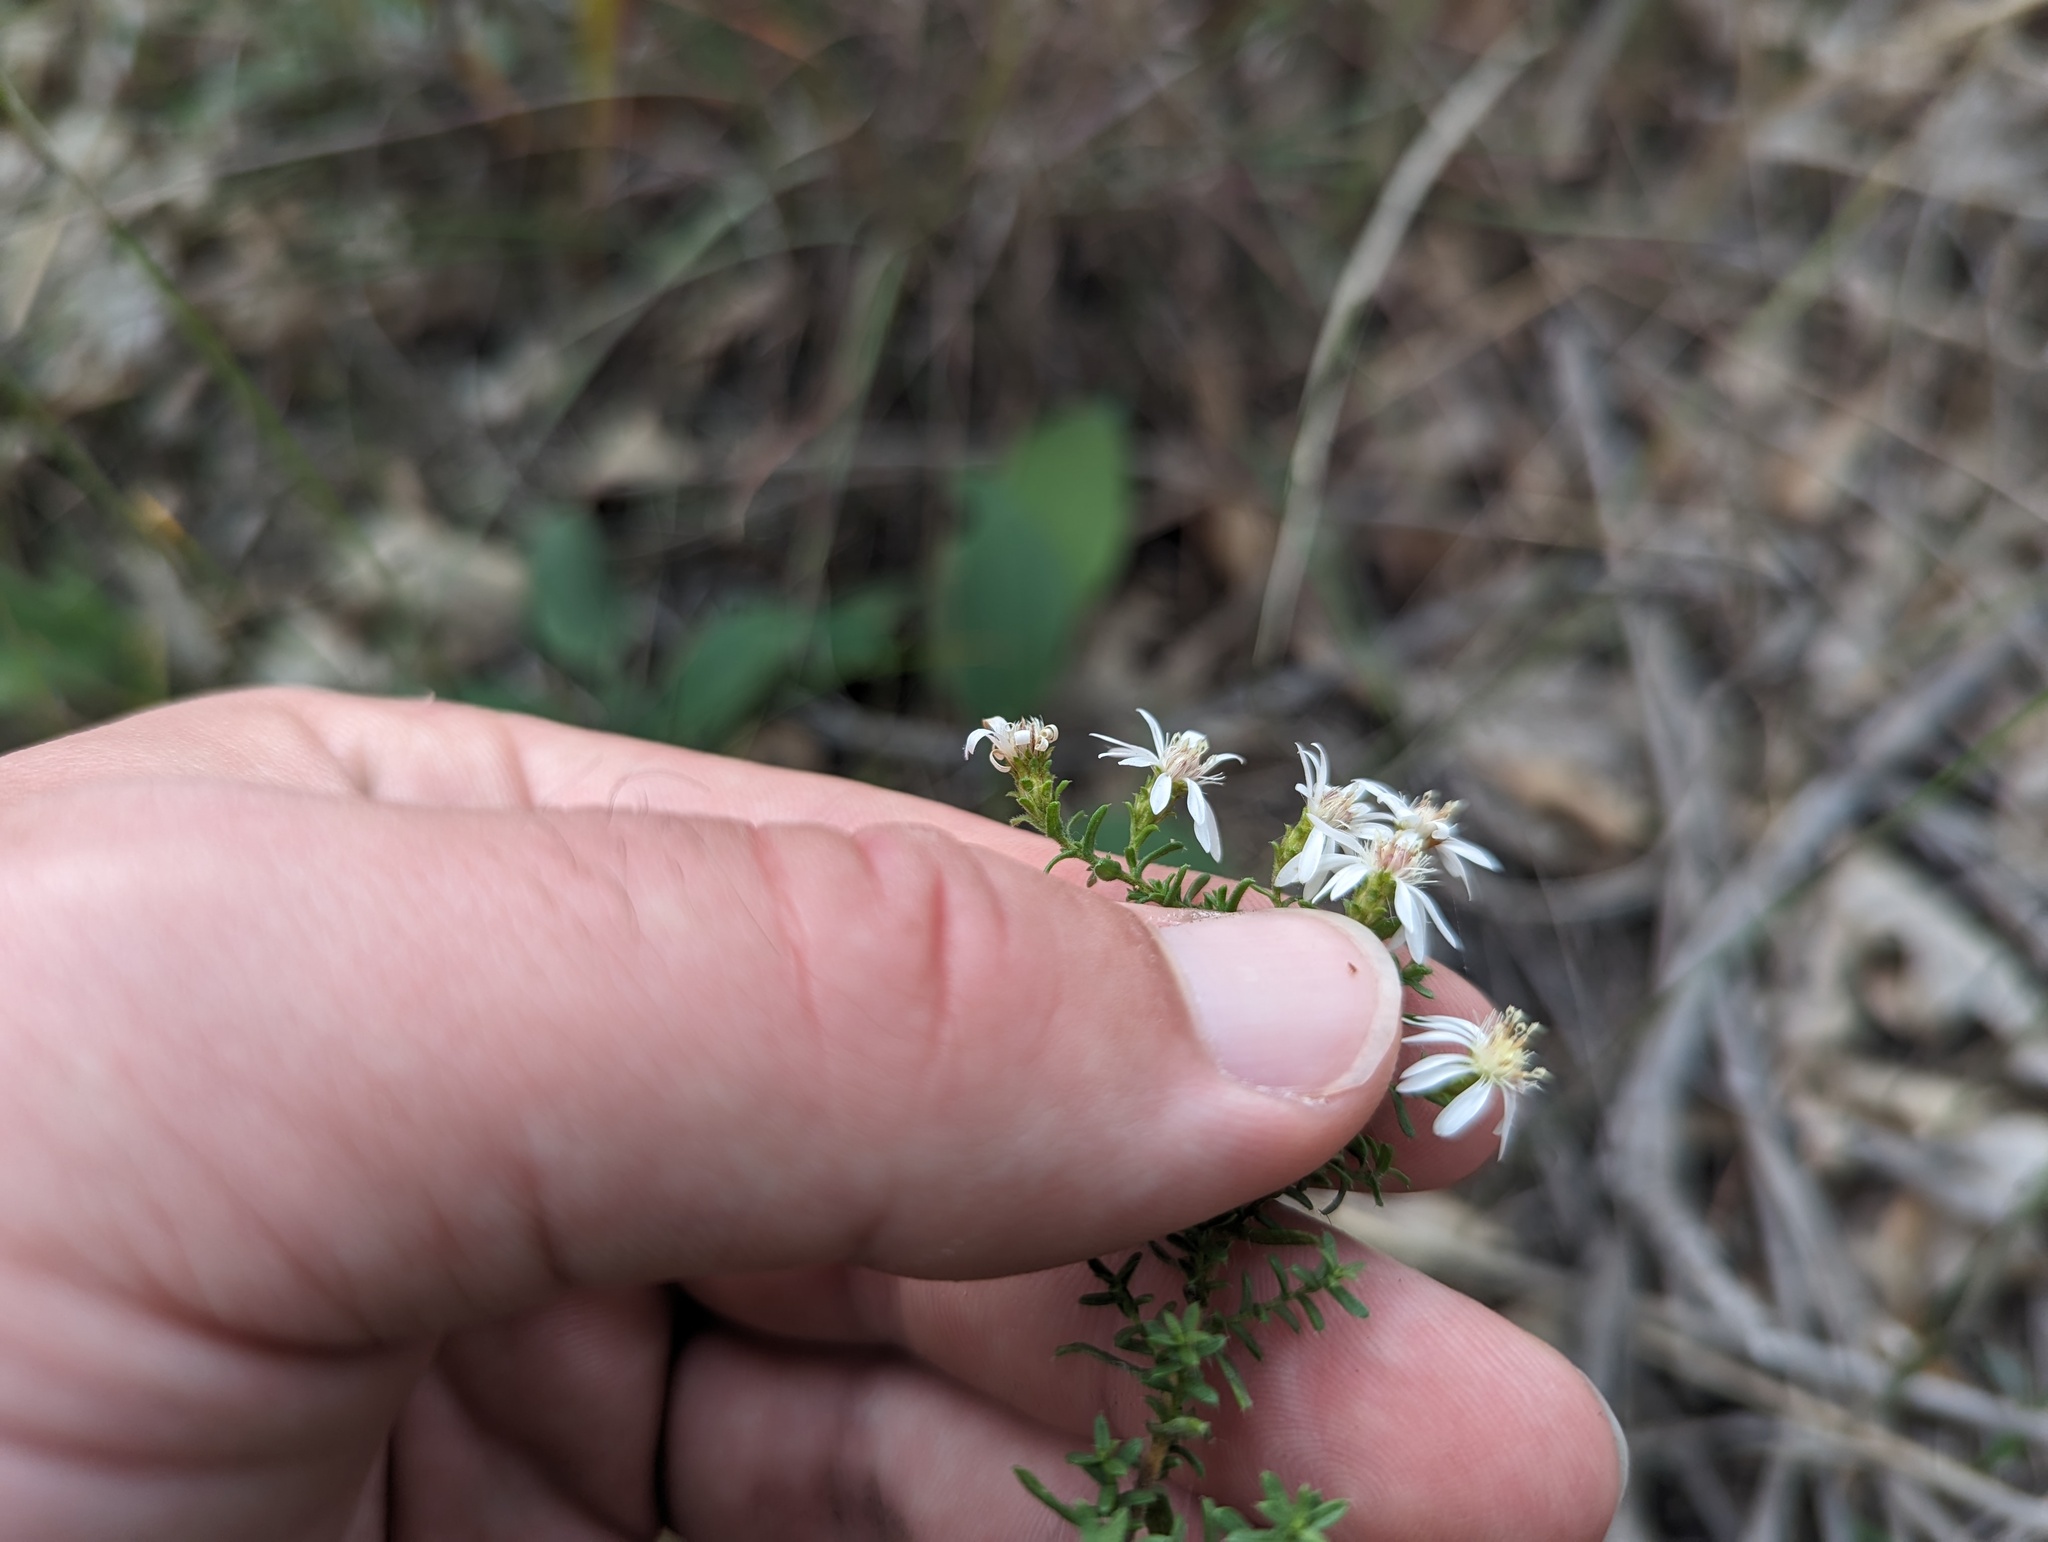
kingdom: Plantae
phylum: Tracheophyta
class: Magnoliopsida
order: Asterales
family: Asteraceae
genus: Symphyotrichum
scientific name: Symphyotrichum ericoides
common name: Heath aster
